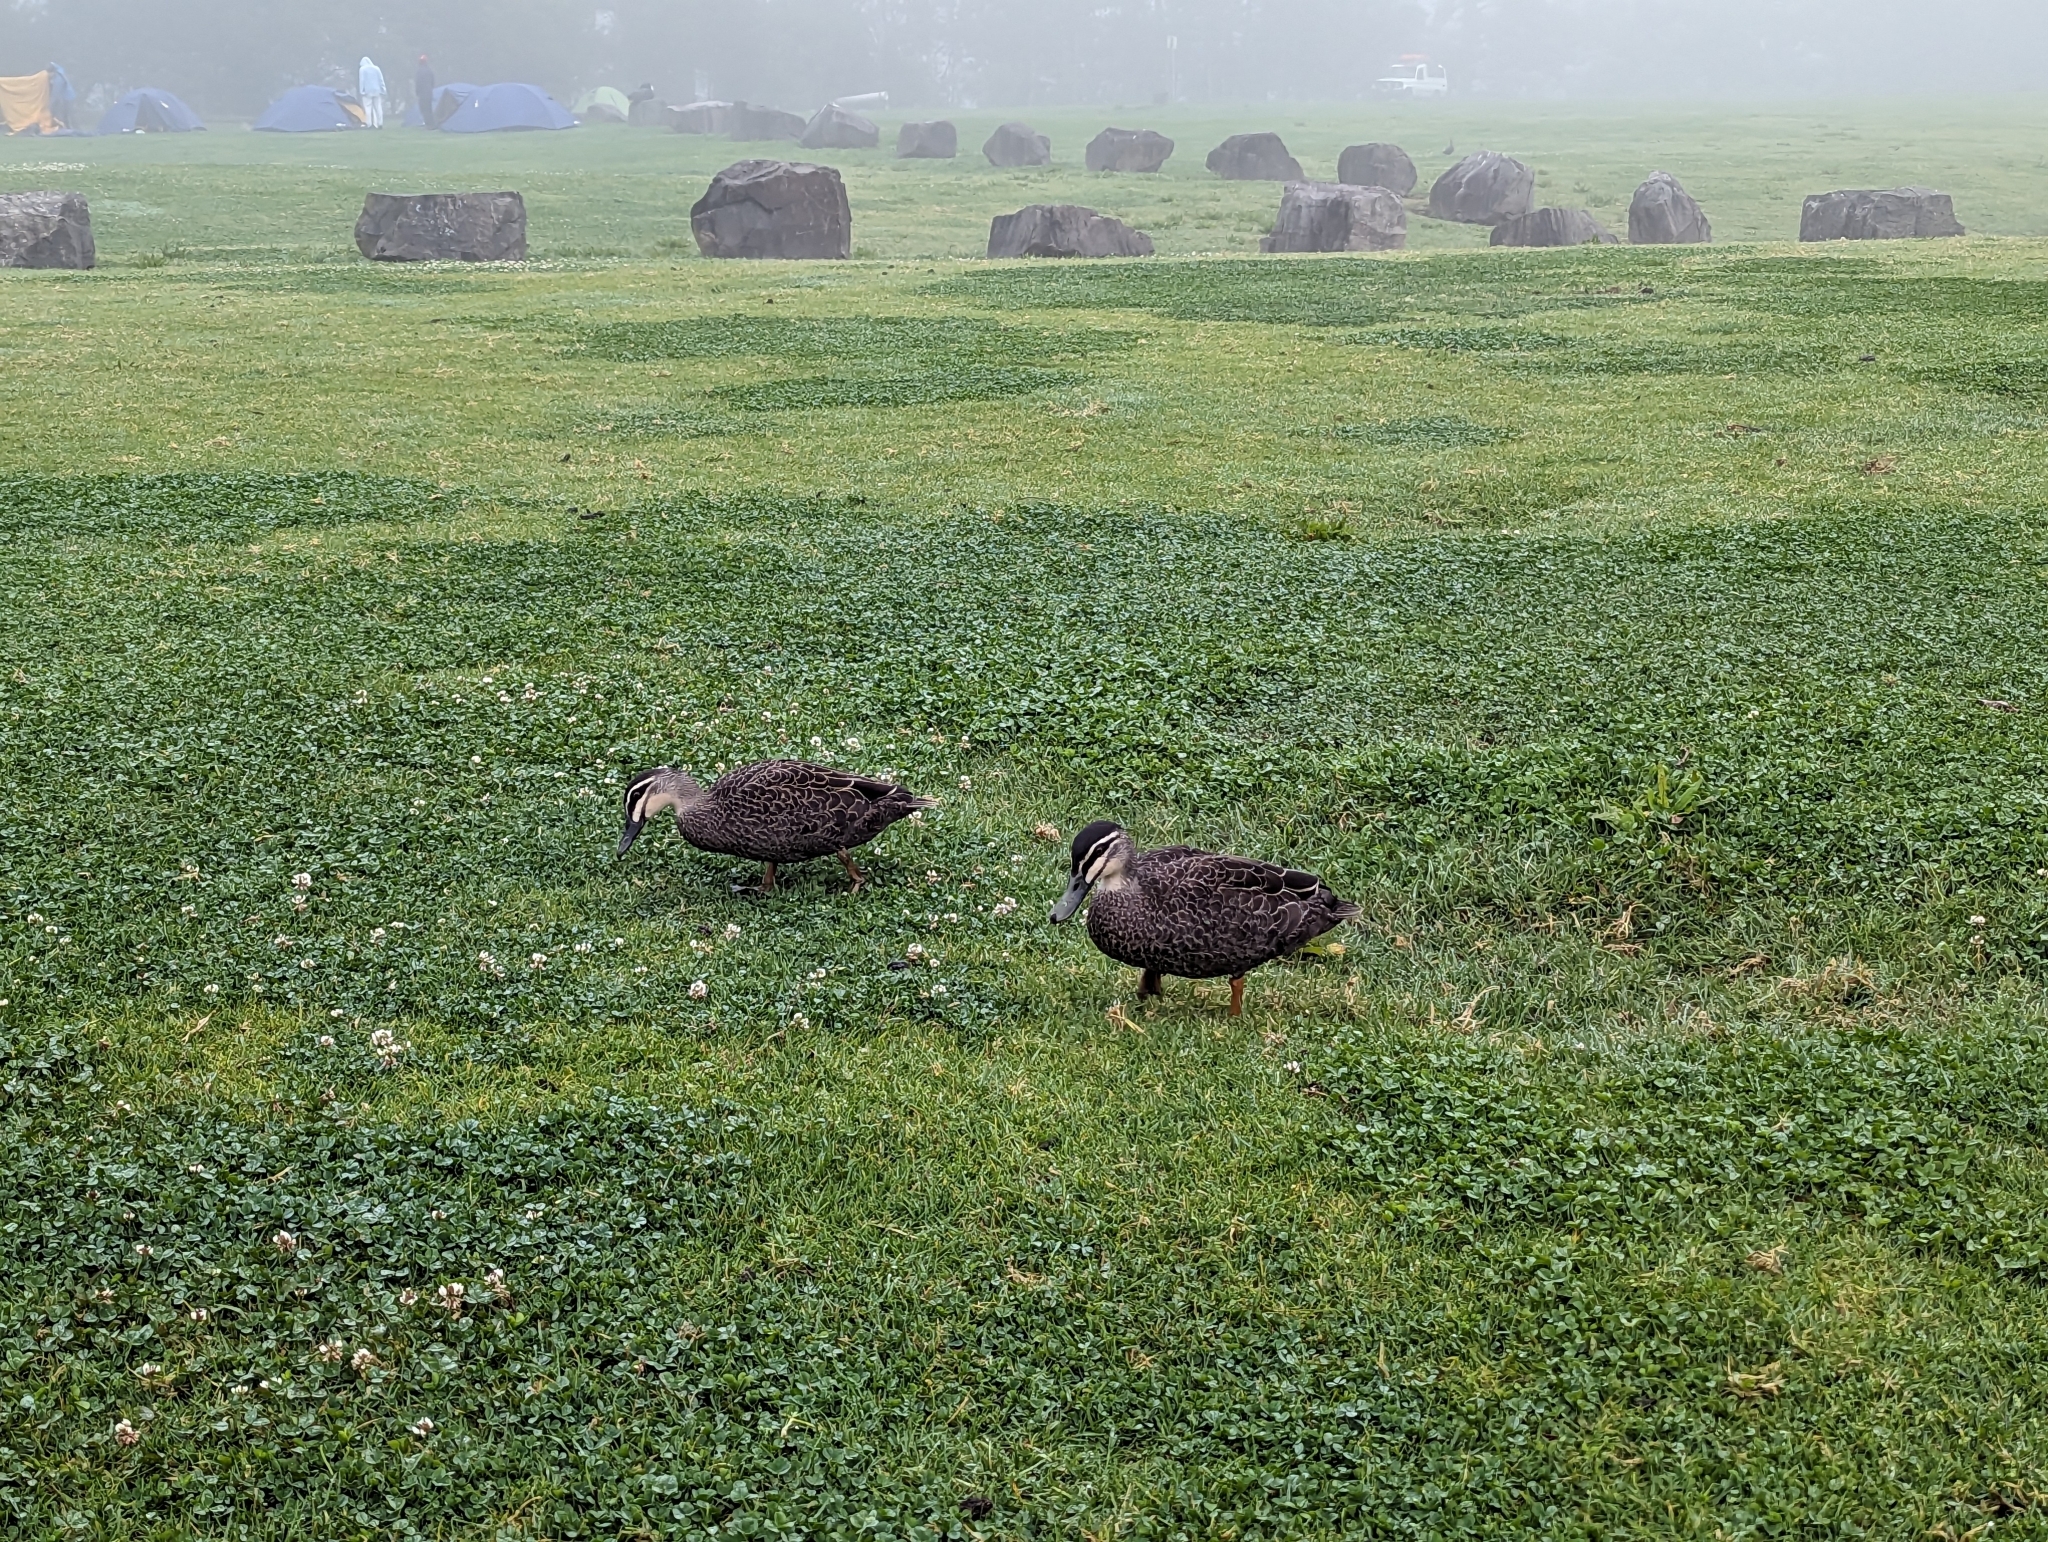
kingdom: Animalia
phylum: Chordata
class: Aves
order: Anseriformes
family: Anatidae
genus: Anas
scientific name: Anas superciliosa
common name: Pacific black duck
